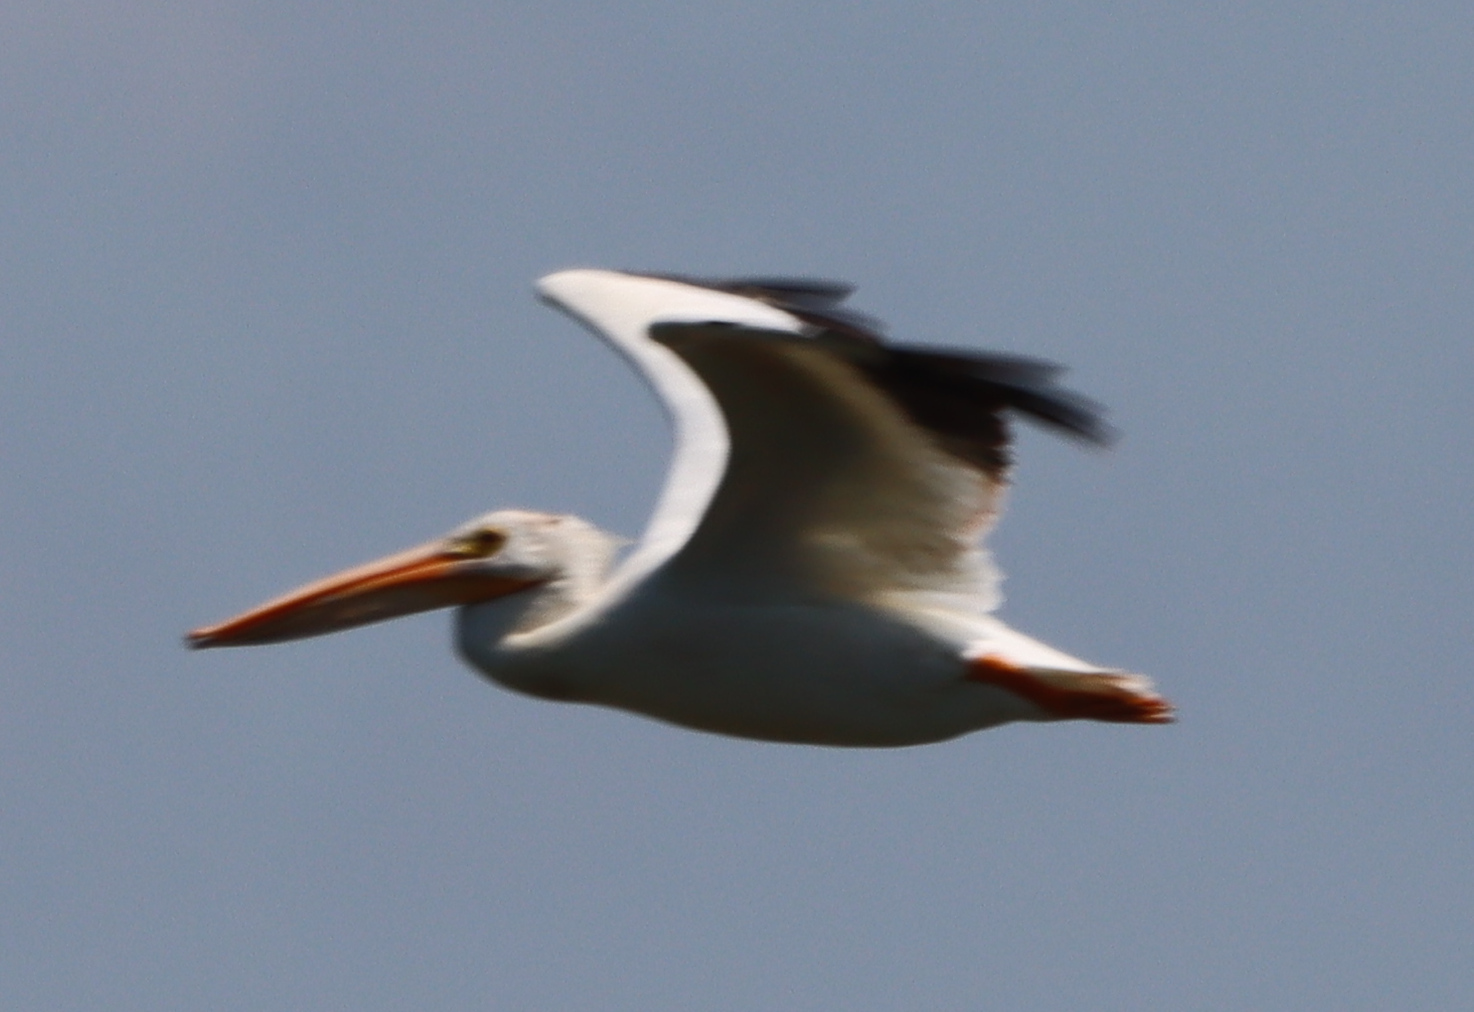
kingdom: Animalia
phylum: Chordata
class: Aves
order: Pelecaniformes
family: Pelecanidae
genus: Pelecanus
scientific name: Pelecanus erythrorhynchos
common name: American white pelican
